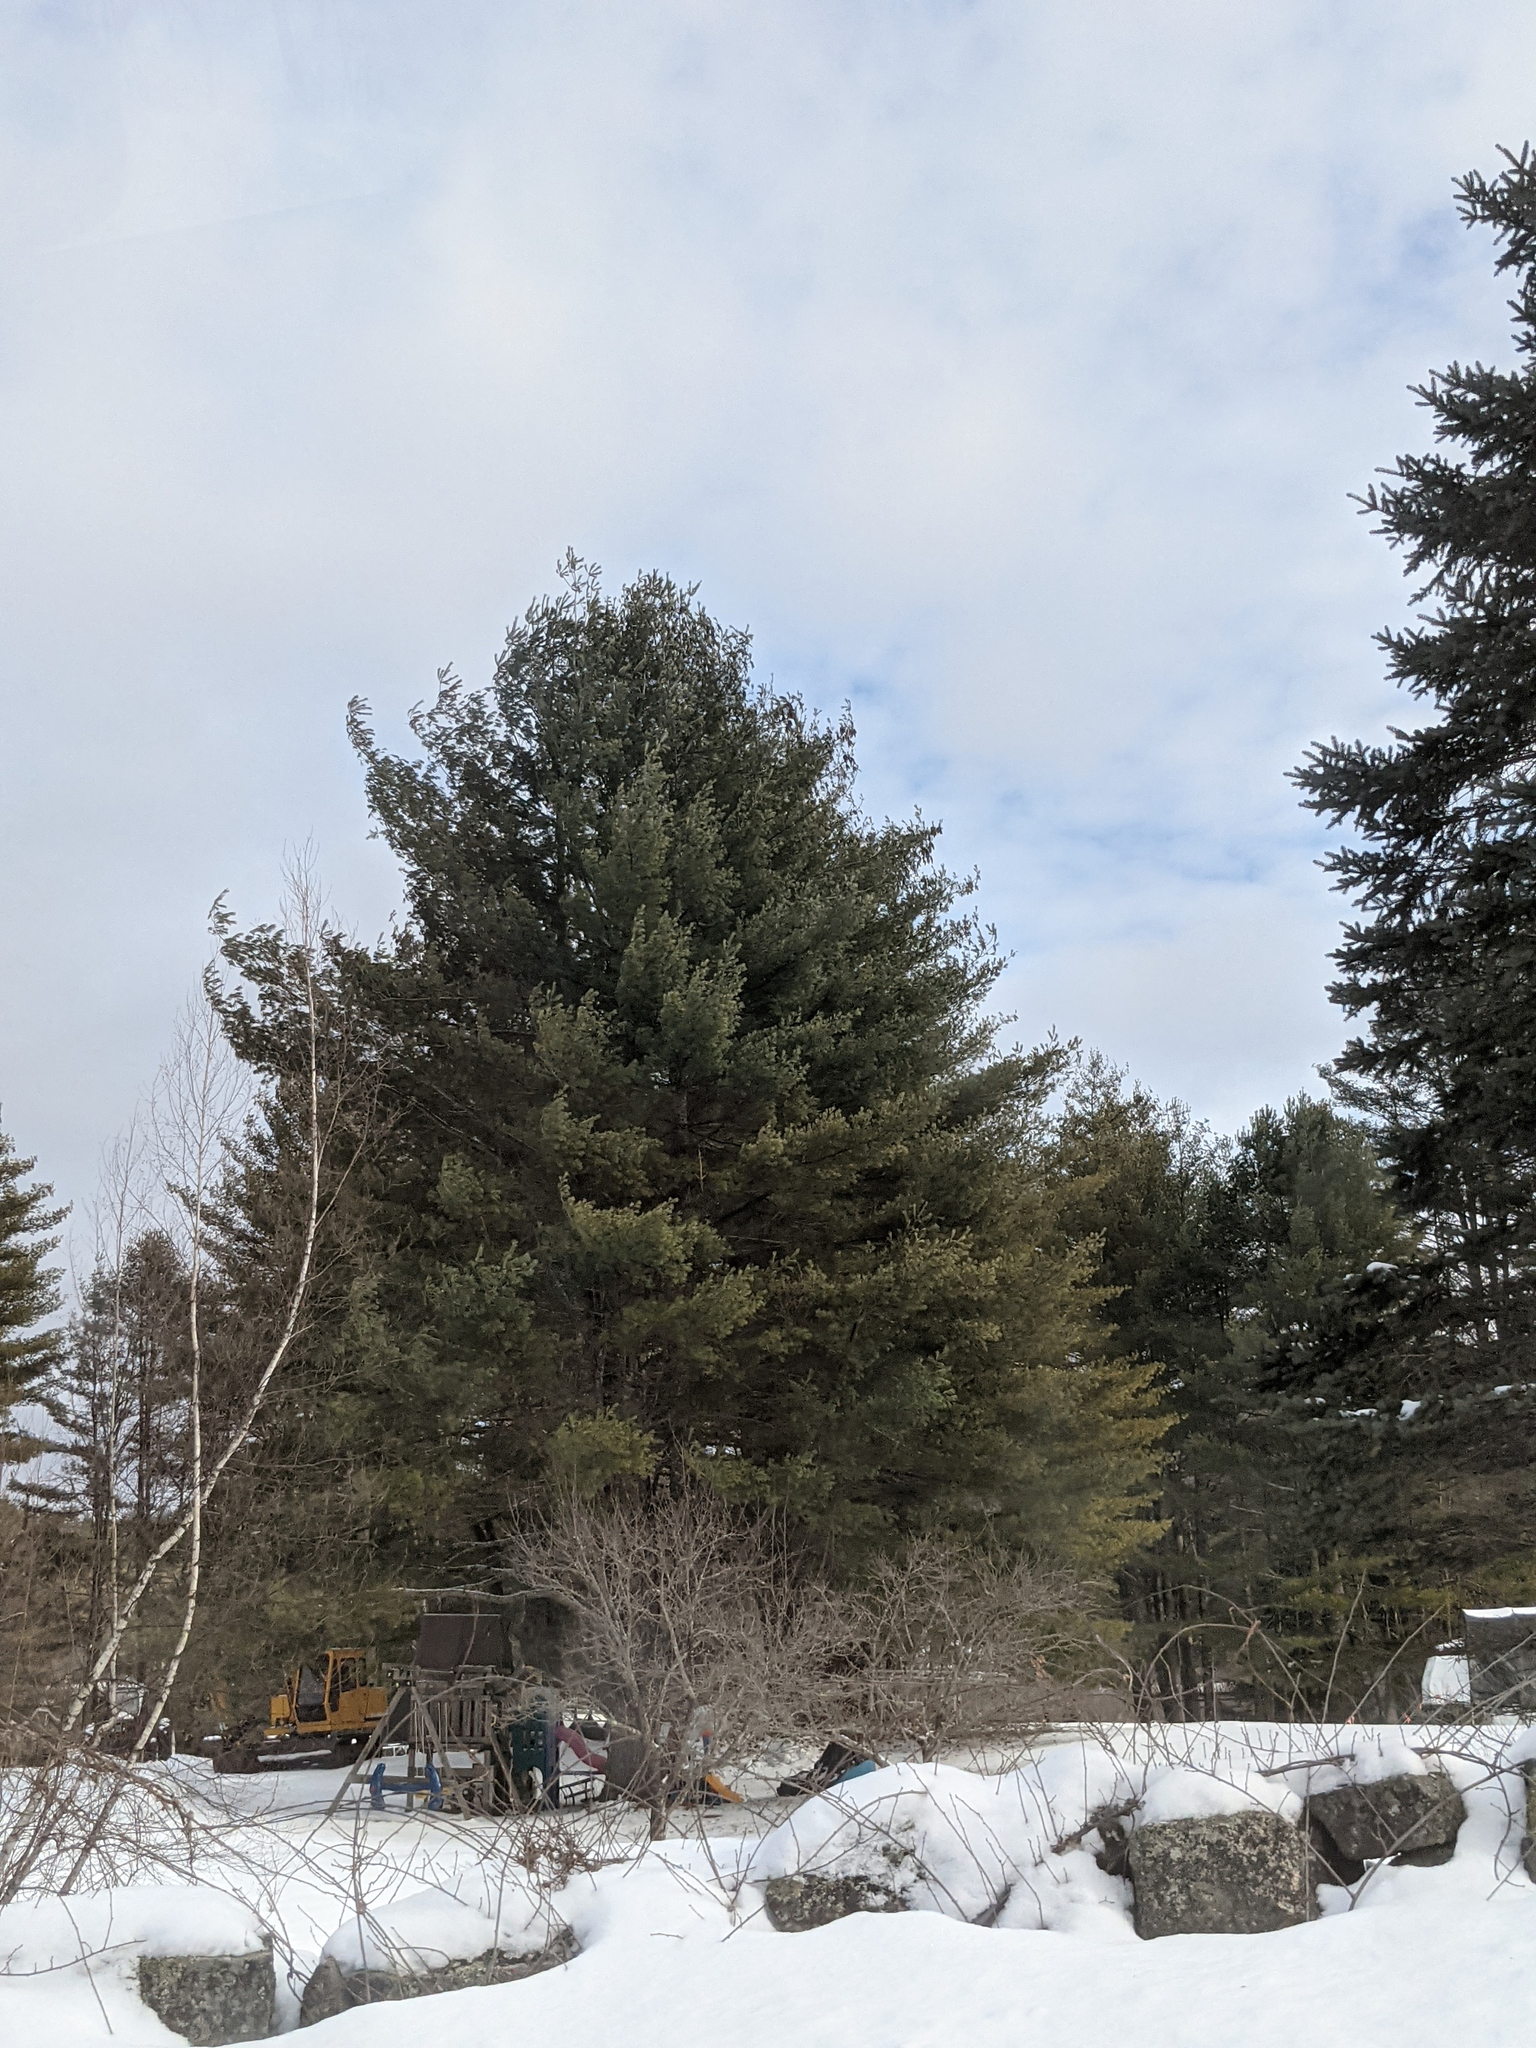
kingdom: Plantae
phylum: Tracheophyta
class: Pinopsida
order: Pinales
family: Pinaceae
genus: Pinus
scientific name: Pinus strobus
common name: Weymouth pine
